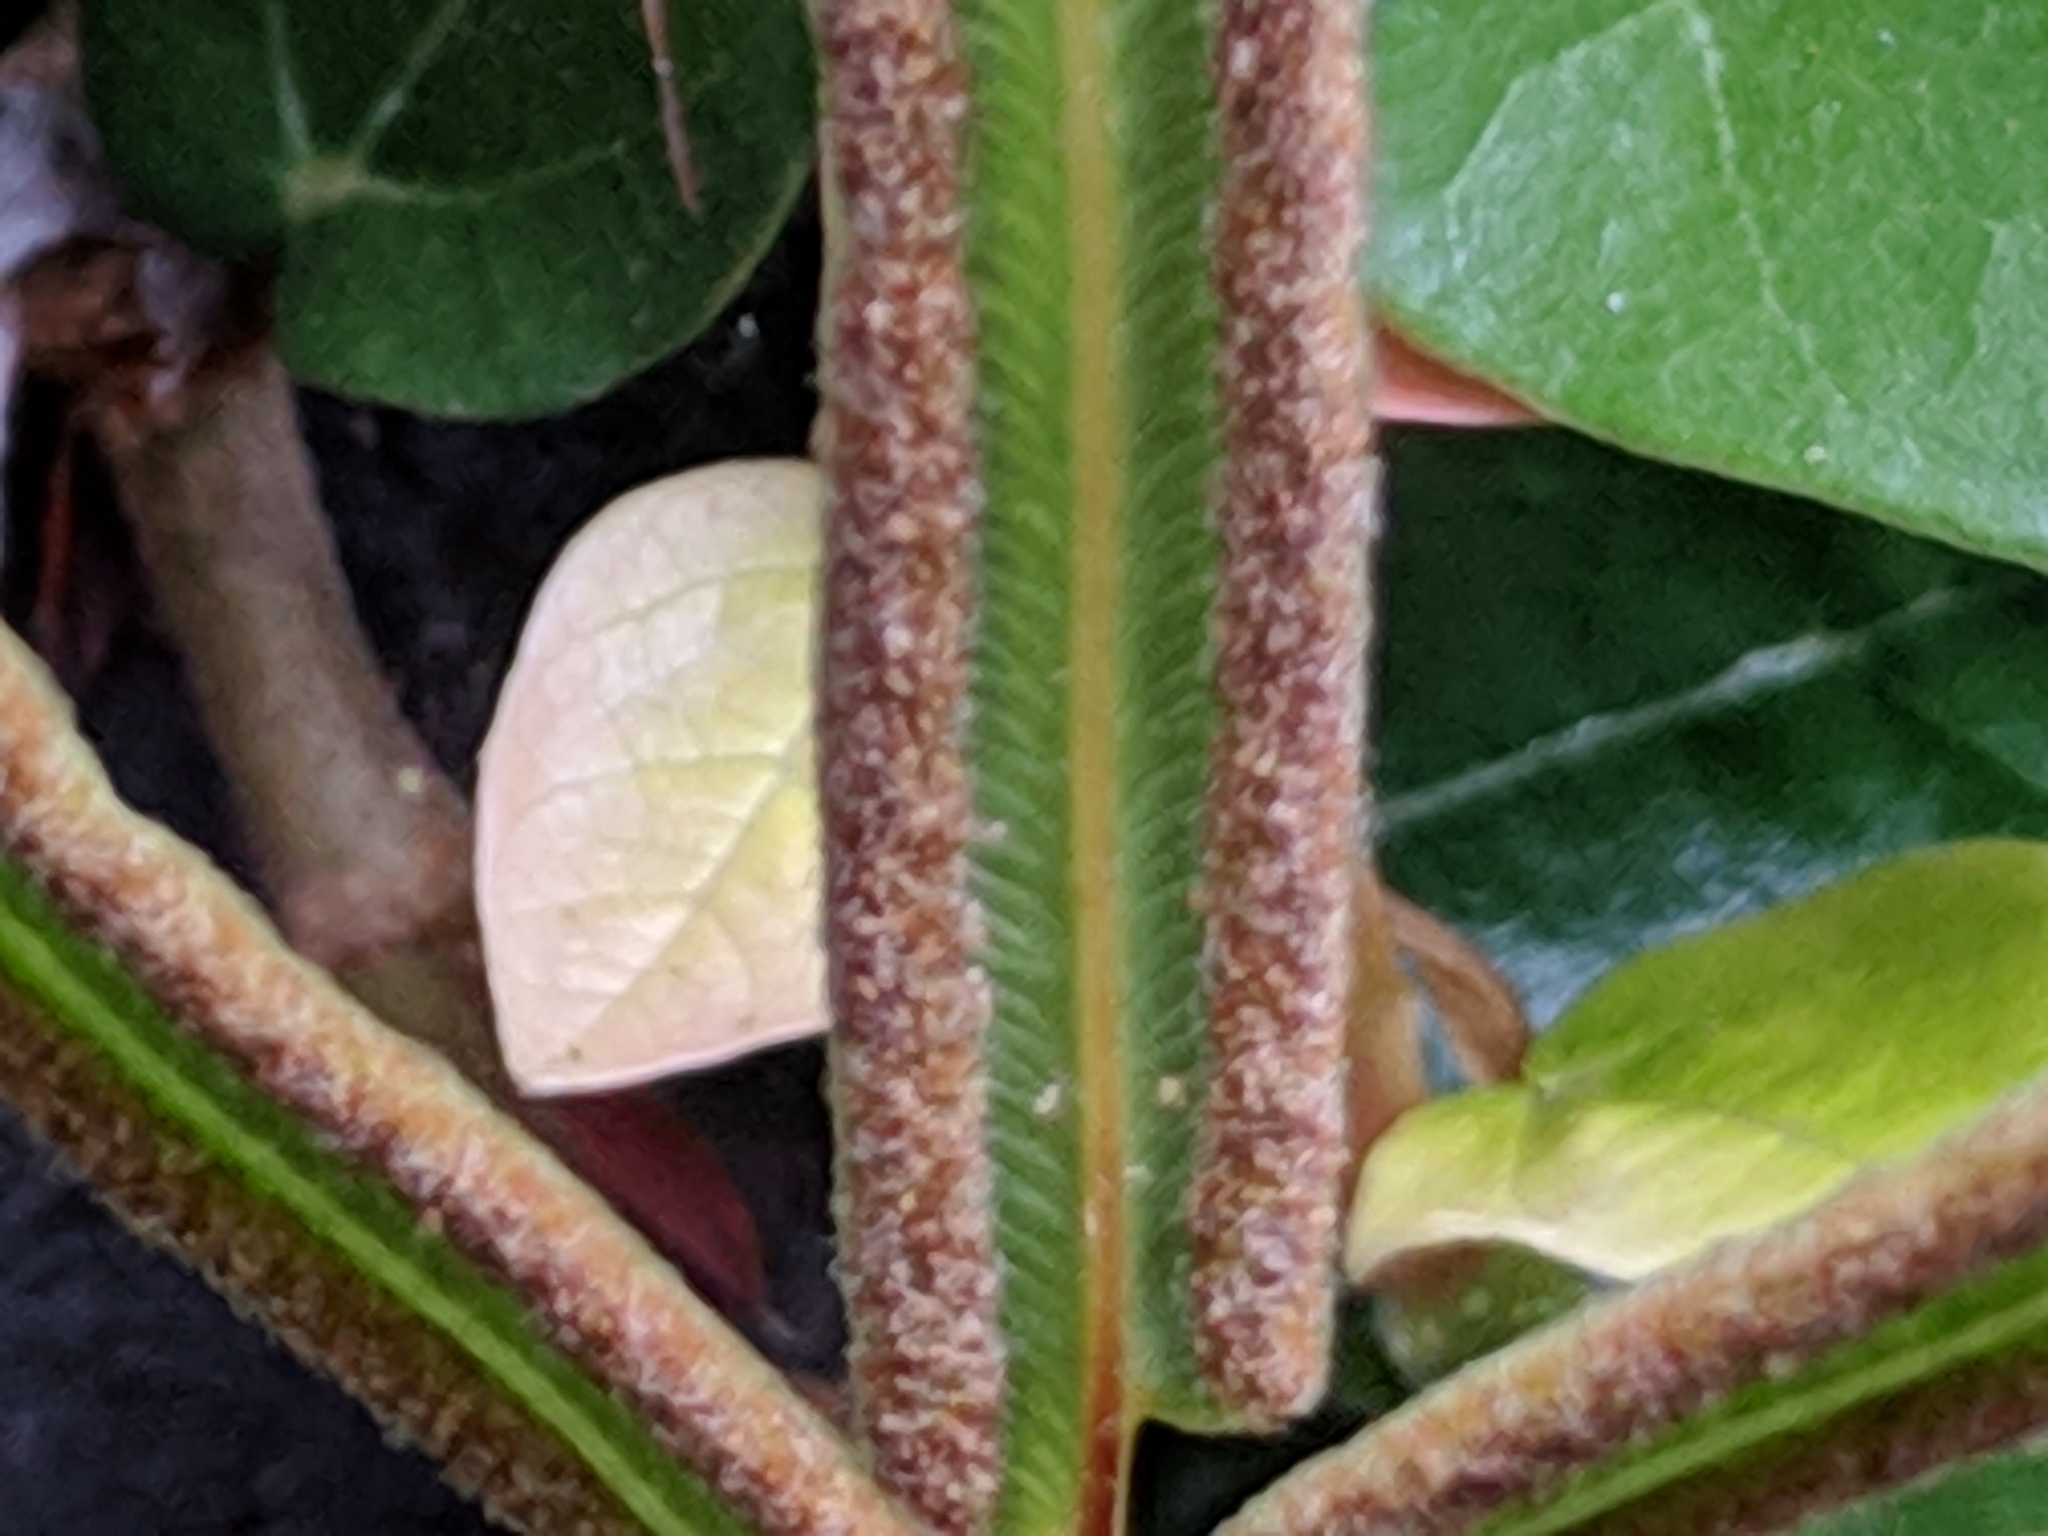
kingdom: Plantae
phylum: Tracheophyta
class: Polypodiopsida
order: Polypodiales
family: Pteridaceae
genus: Pteris
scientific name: Pteris vittata
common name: Ladder brake
